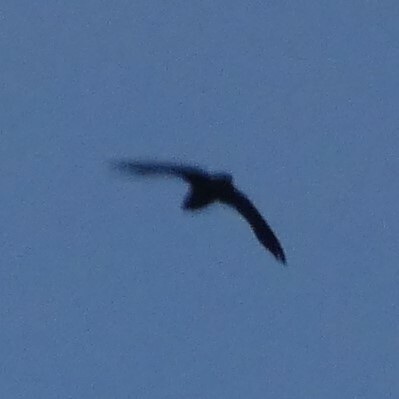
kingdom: Animalia
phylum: Chordata
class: Aves
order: Apodiformes
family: Apodidae
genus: Chaetura
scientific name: Chaetura pelagica
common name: Chimney swift
